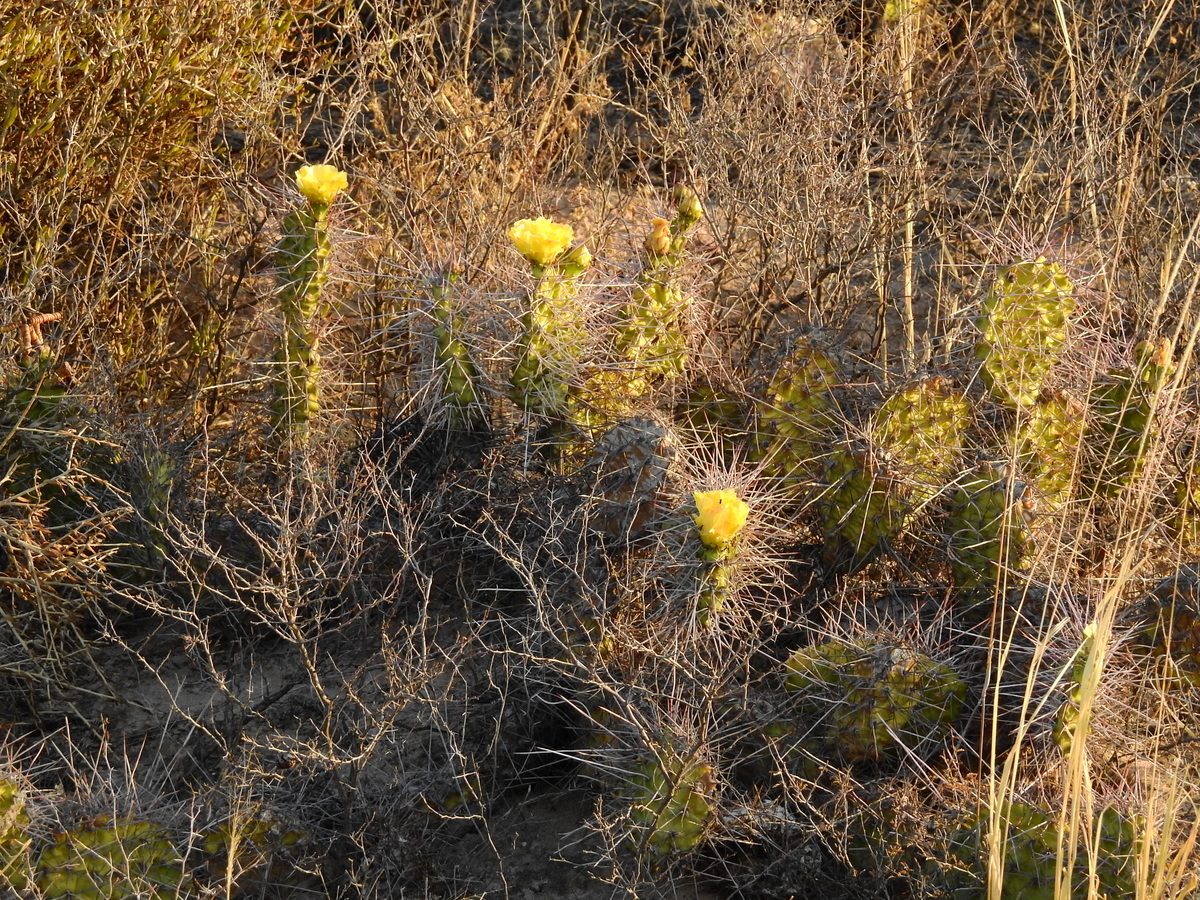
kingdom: Plantae
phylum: Tracheophyta
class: Magnoliopsida
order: Caryophyllales
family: Cactaceae
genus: Opuntia
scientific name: Opuntia sulphurea
